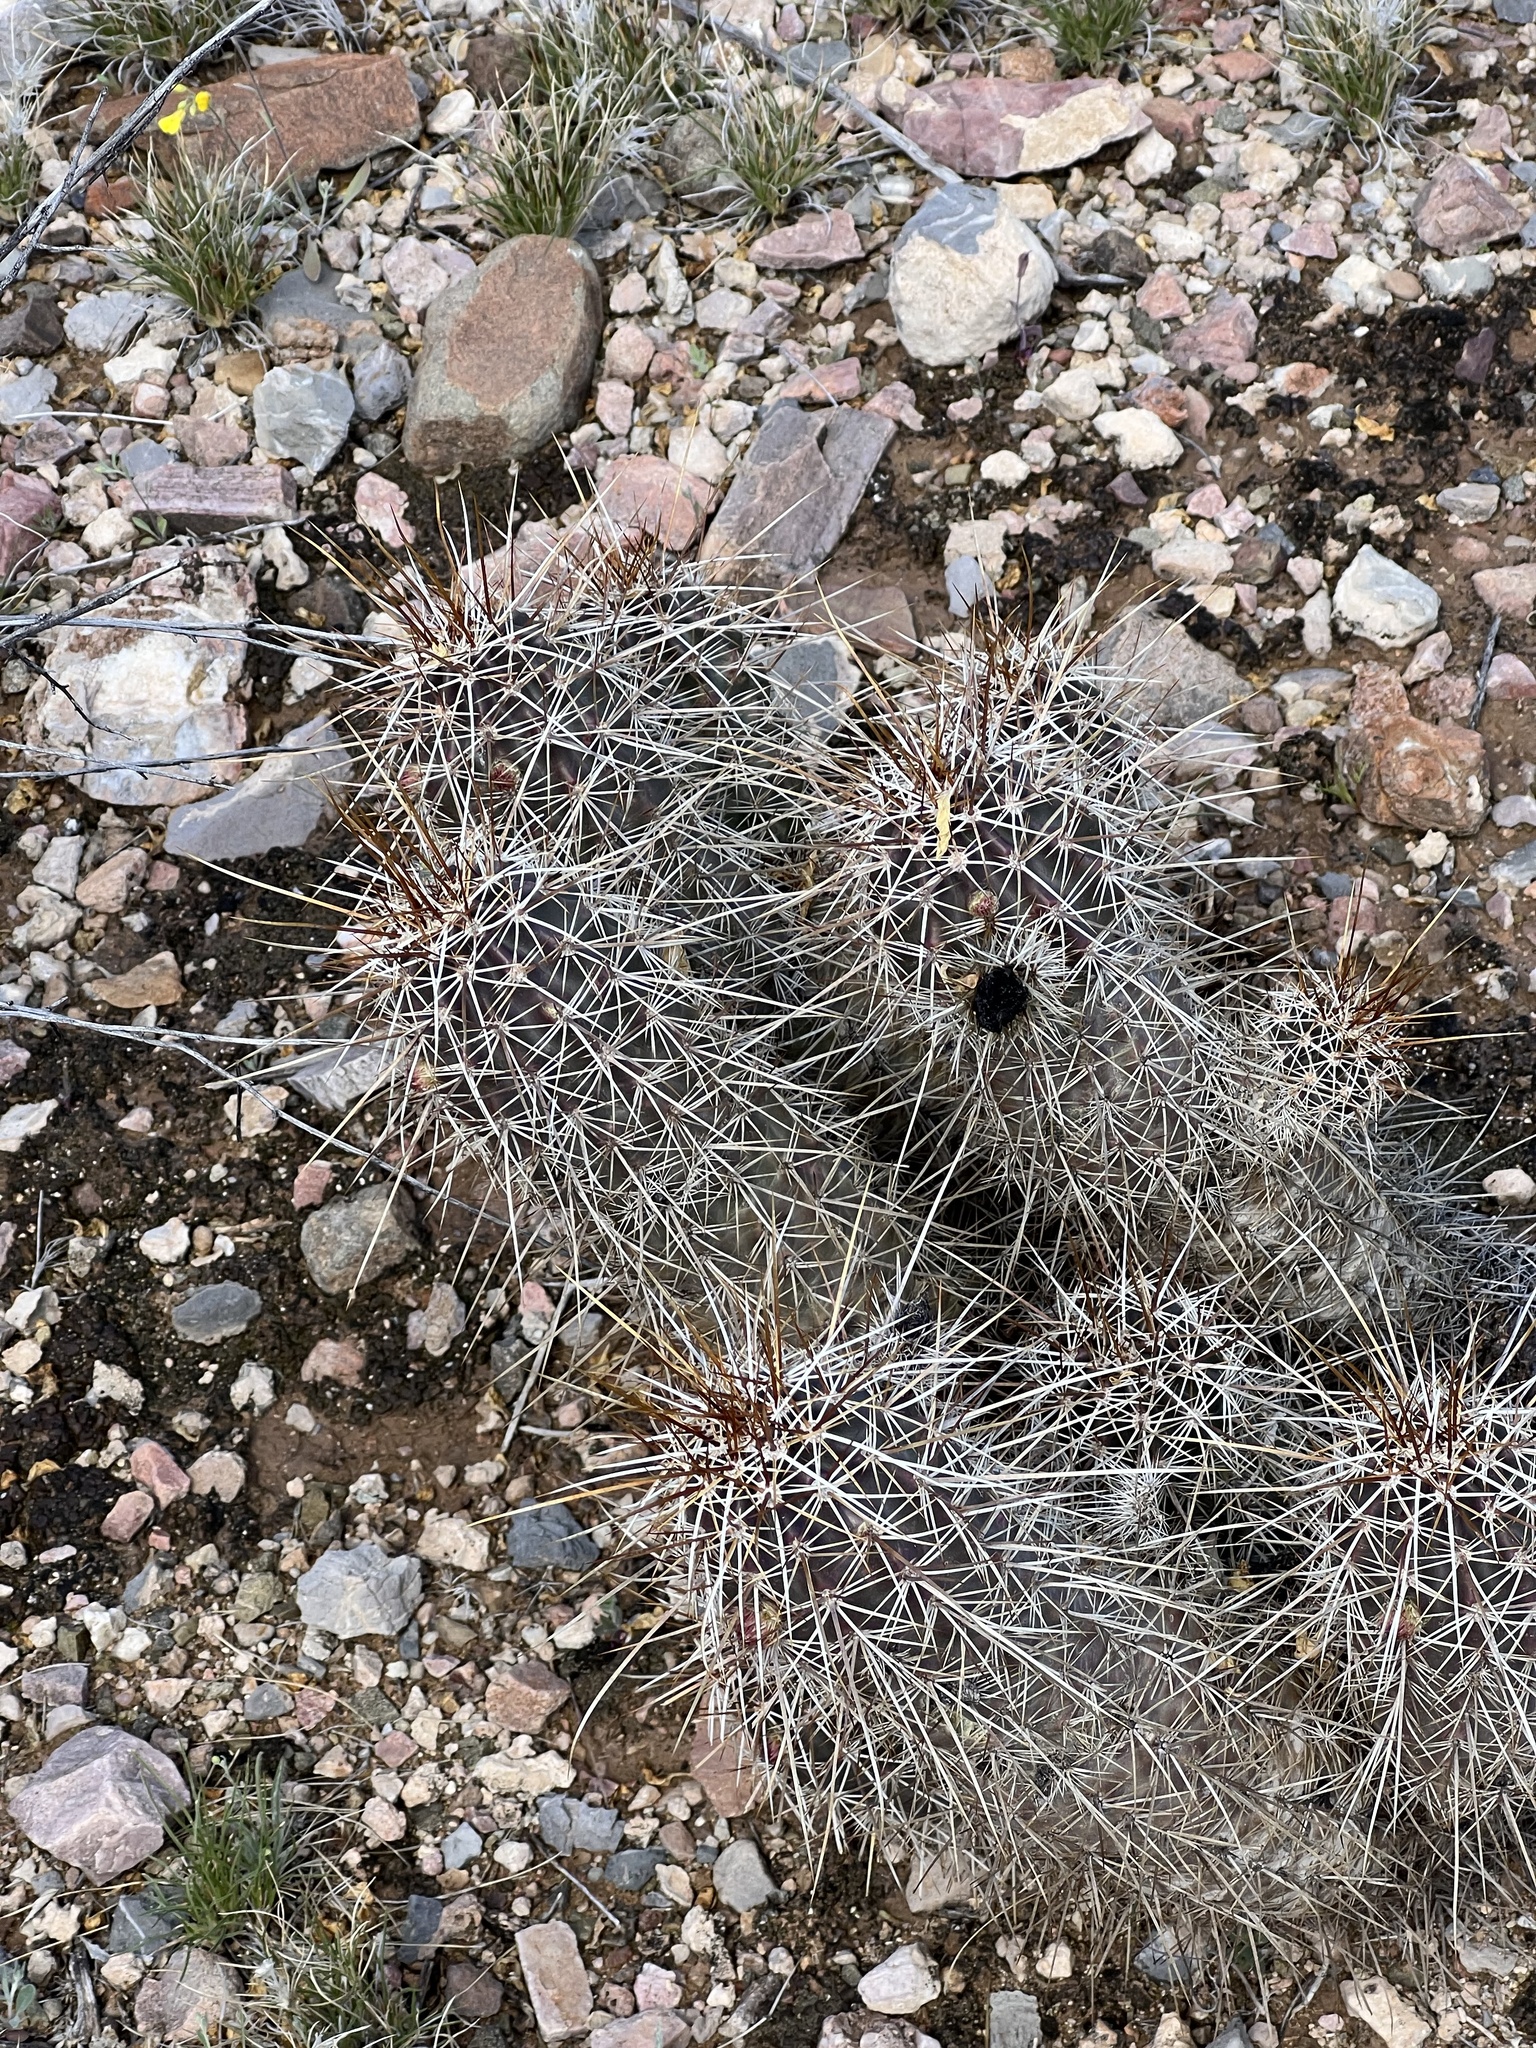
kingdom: Plantae
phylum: Tracheophyta
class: Magnoliopsida
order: Caryophyllales
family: Cactaceae
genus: Echinocereus
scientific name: Echinocereus fasciculatus
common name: Bundle hedgehog
